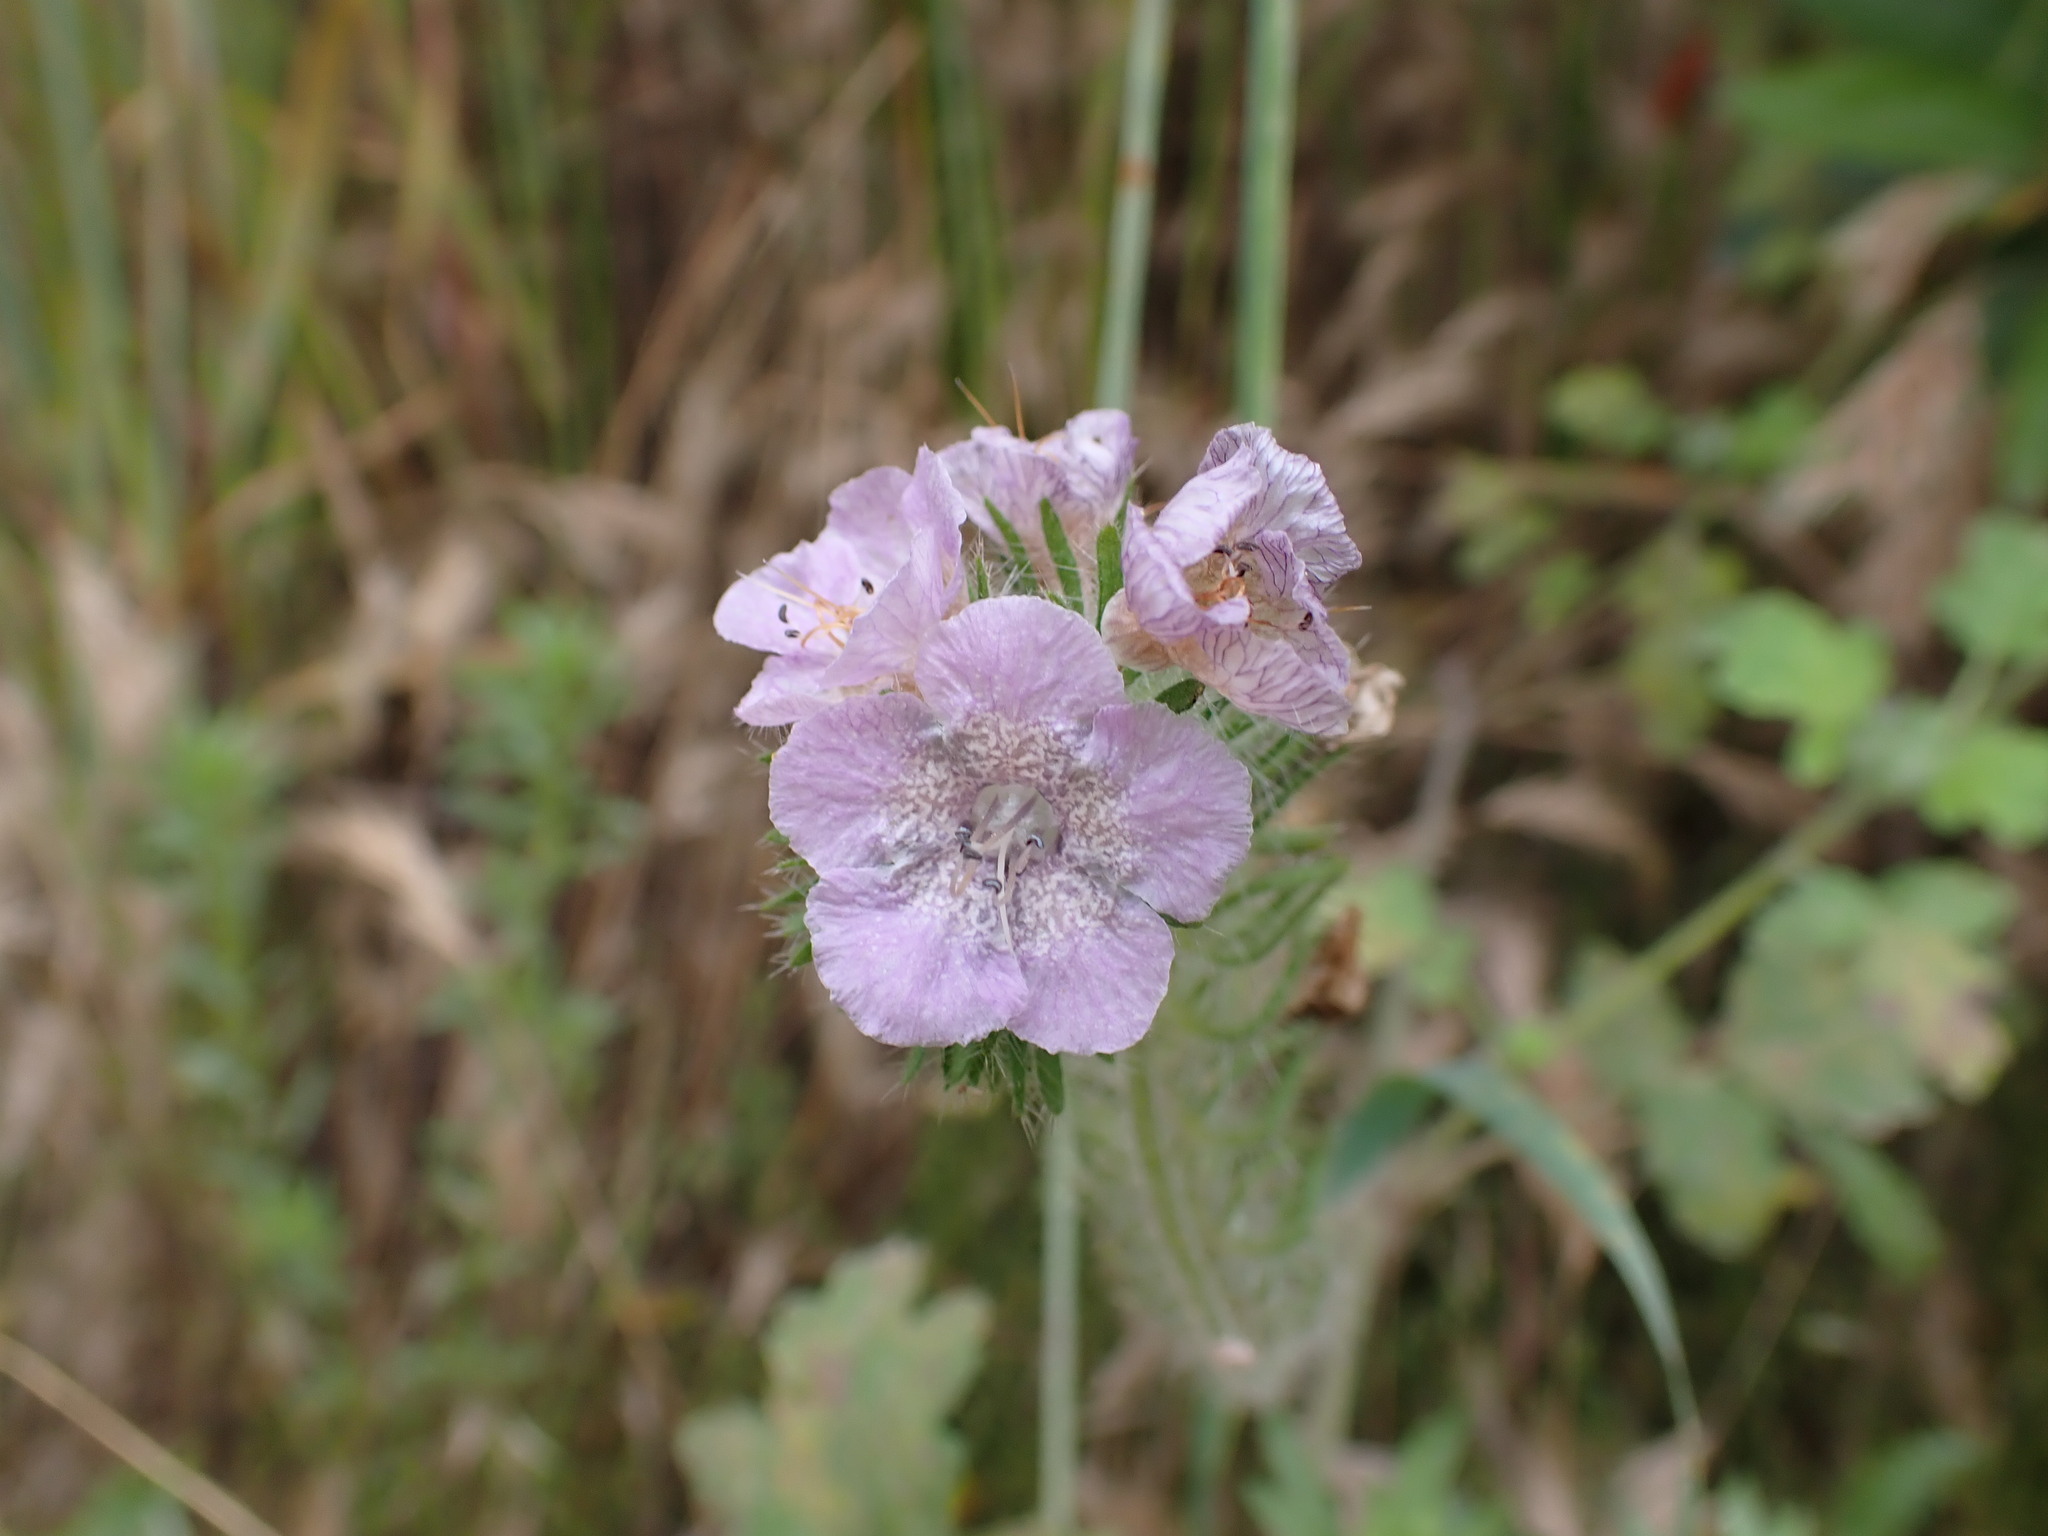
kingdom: Plantae
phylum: Tracheophyta
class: Magnoliopsida
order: Boraginales
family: Hydrophyllaceae
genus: Phacelia
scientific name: Phacelia cicutaria
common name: Caterpillar phacelia
